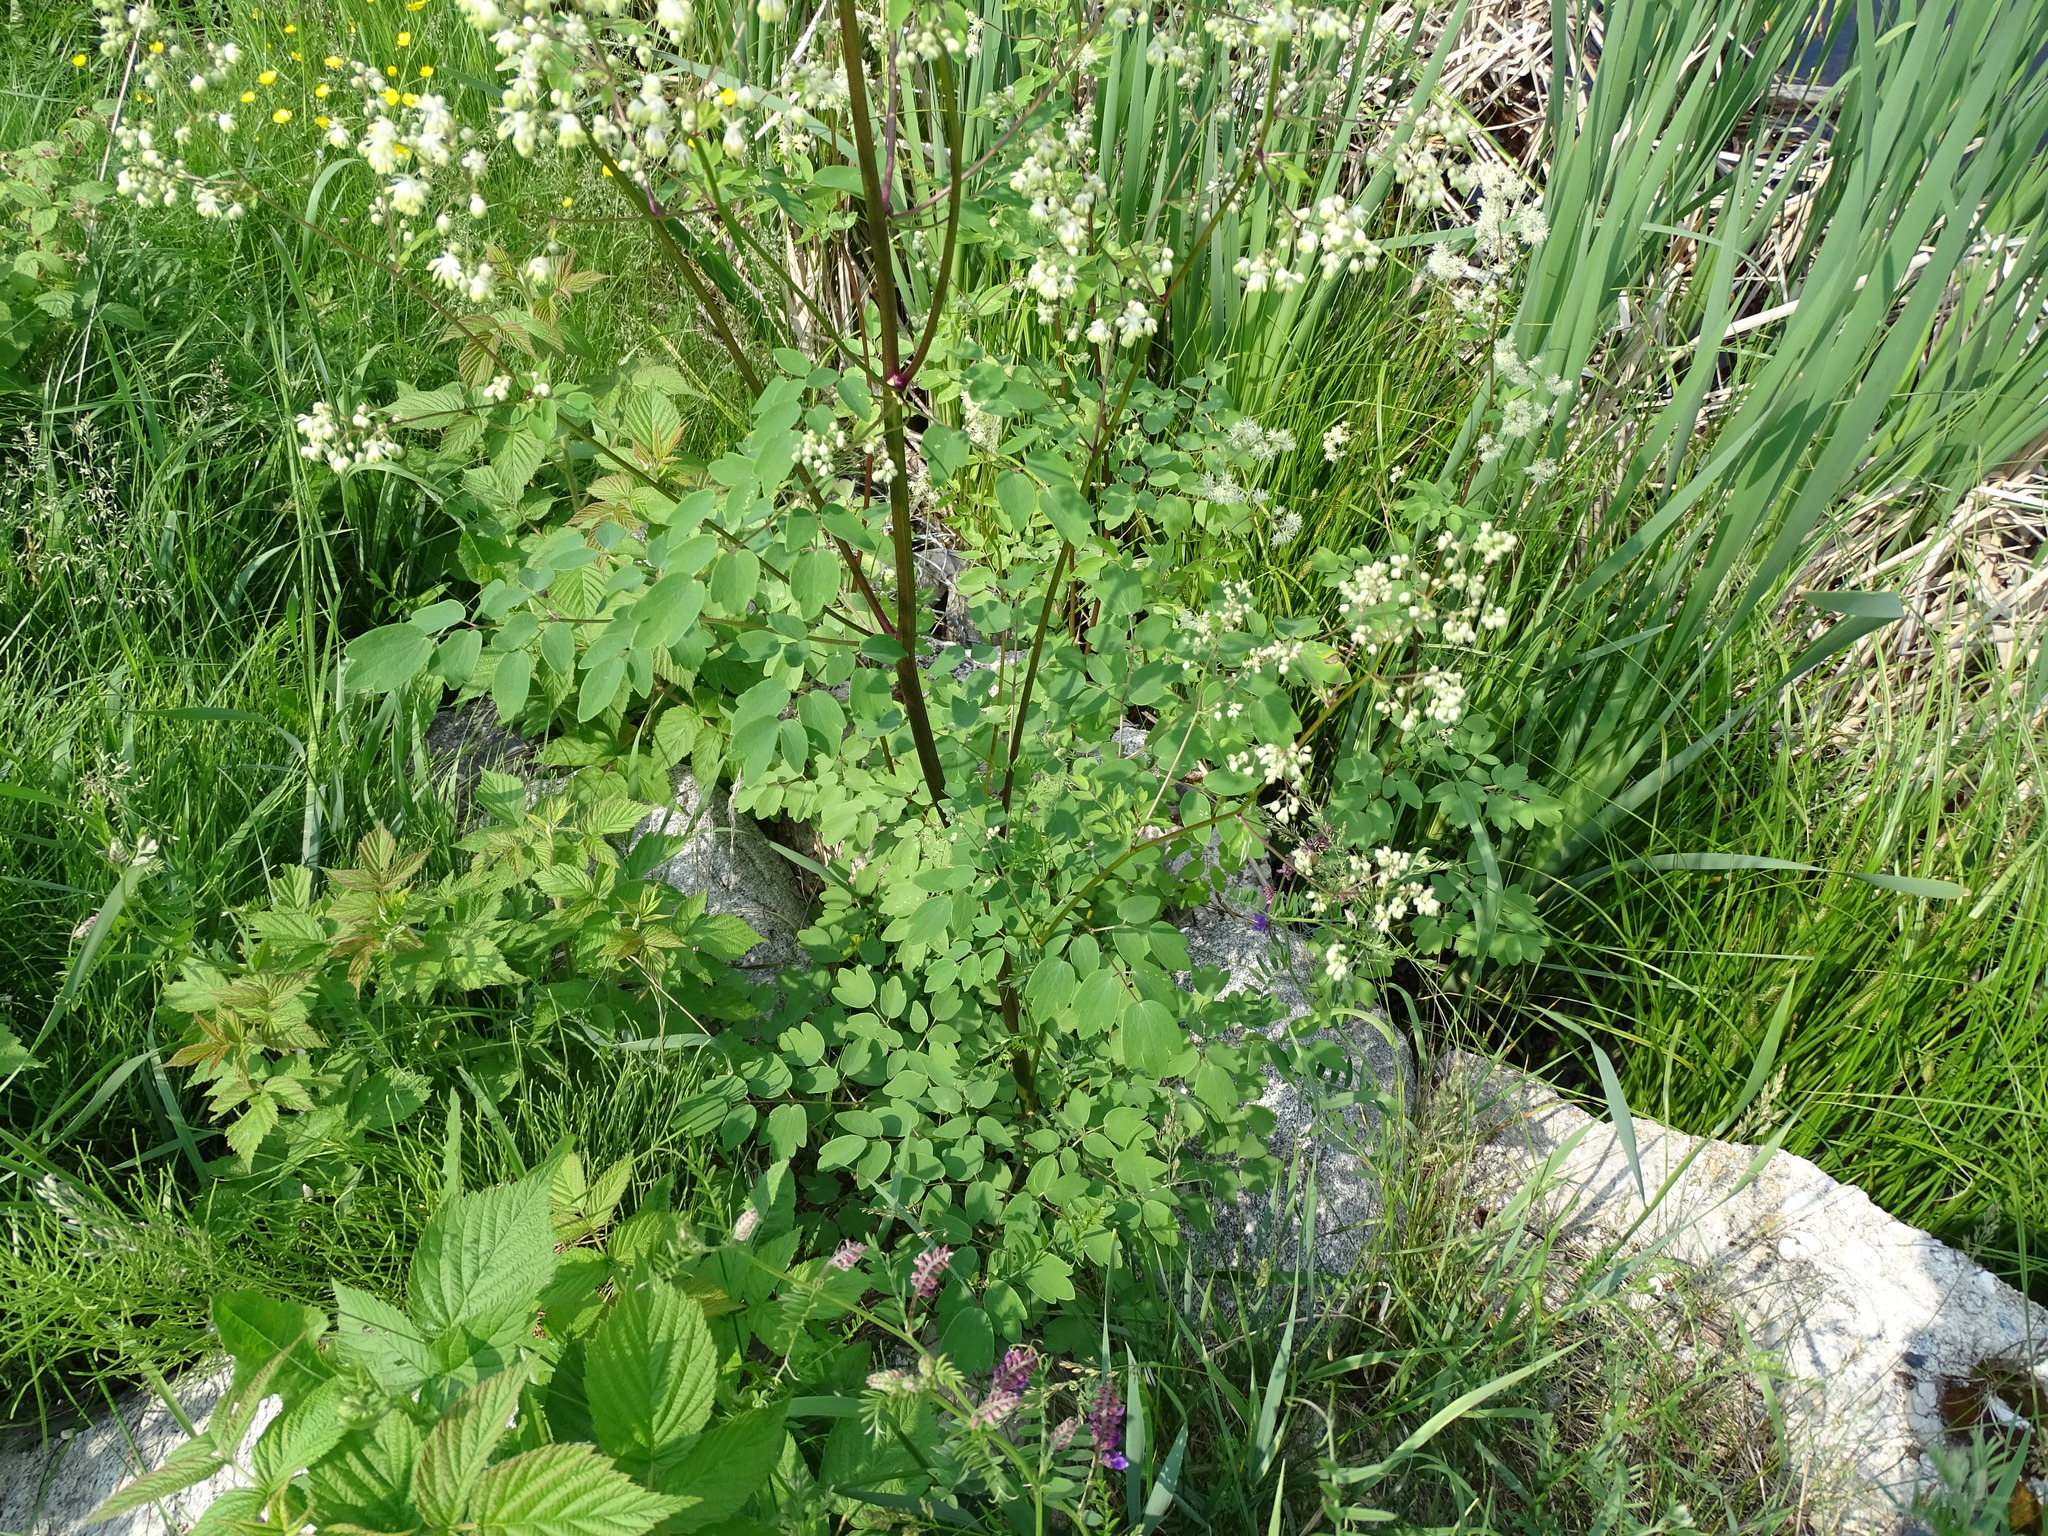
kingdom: Plantae
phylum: Tracheophyta
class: Magnoliopsida
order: Ranunculales
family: Ranunculaceae
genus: Thalictrum
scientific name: Thalictrum dasycarpum
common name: Purple meadow-rue
